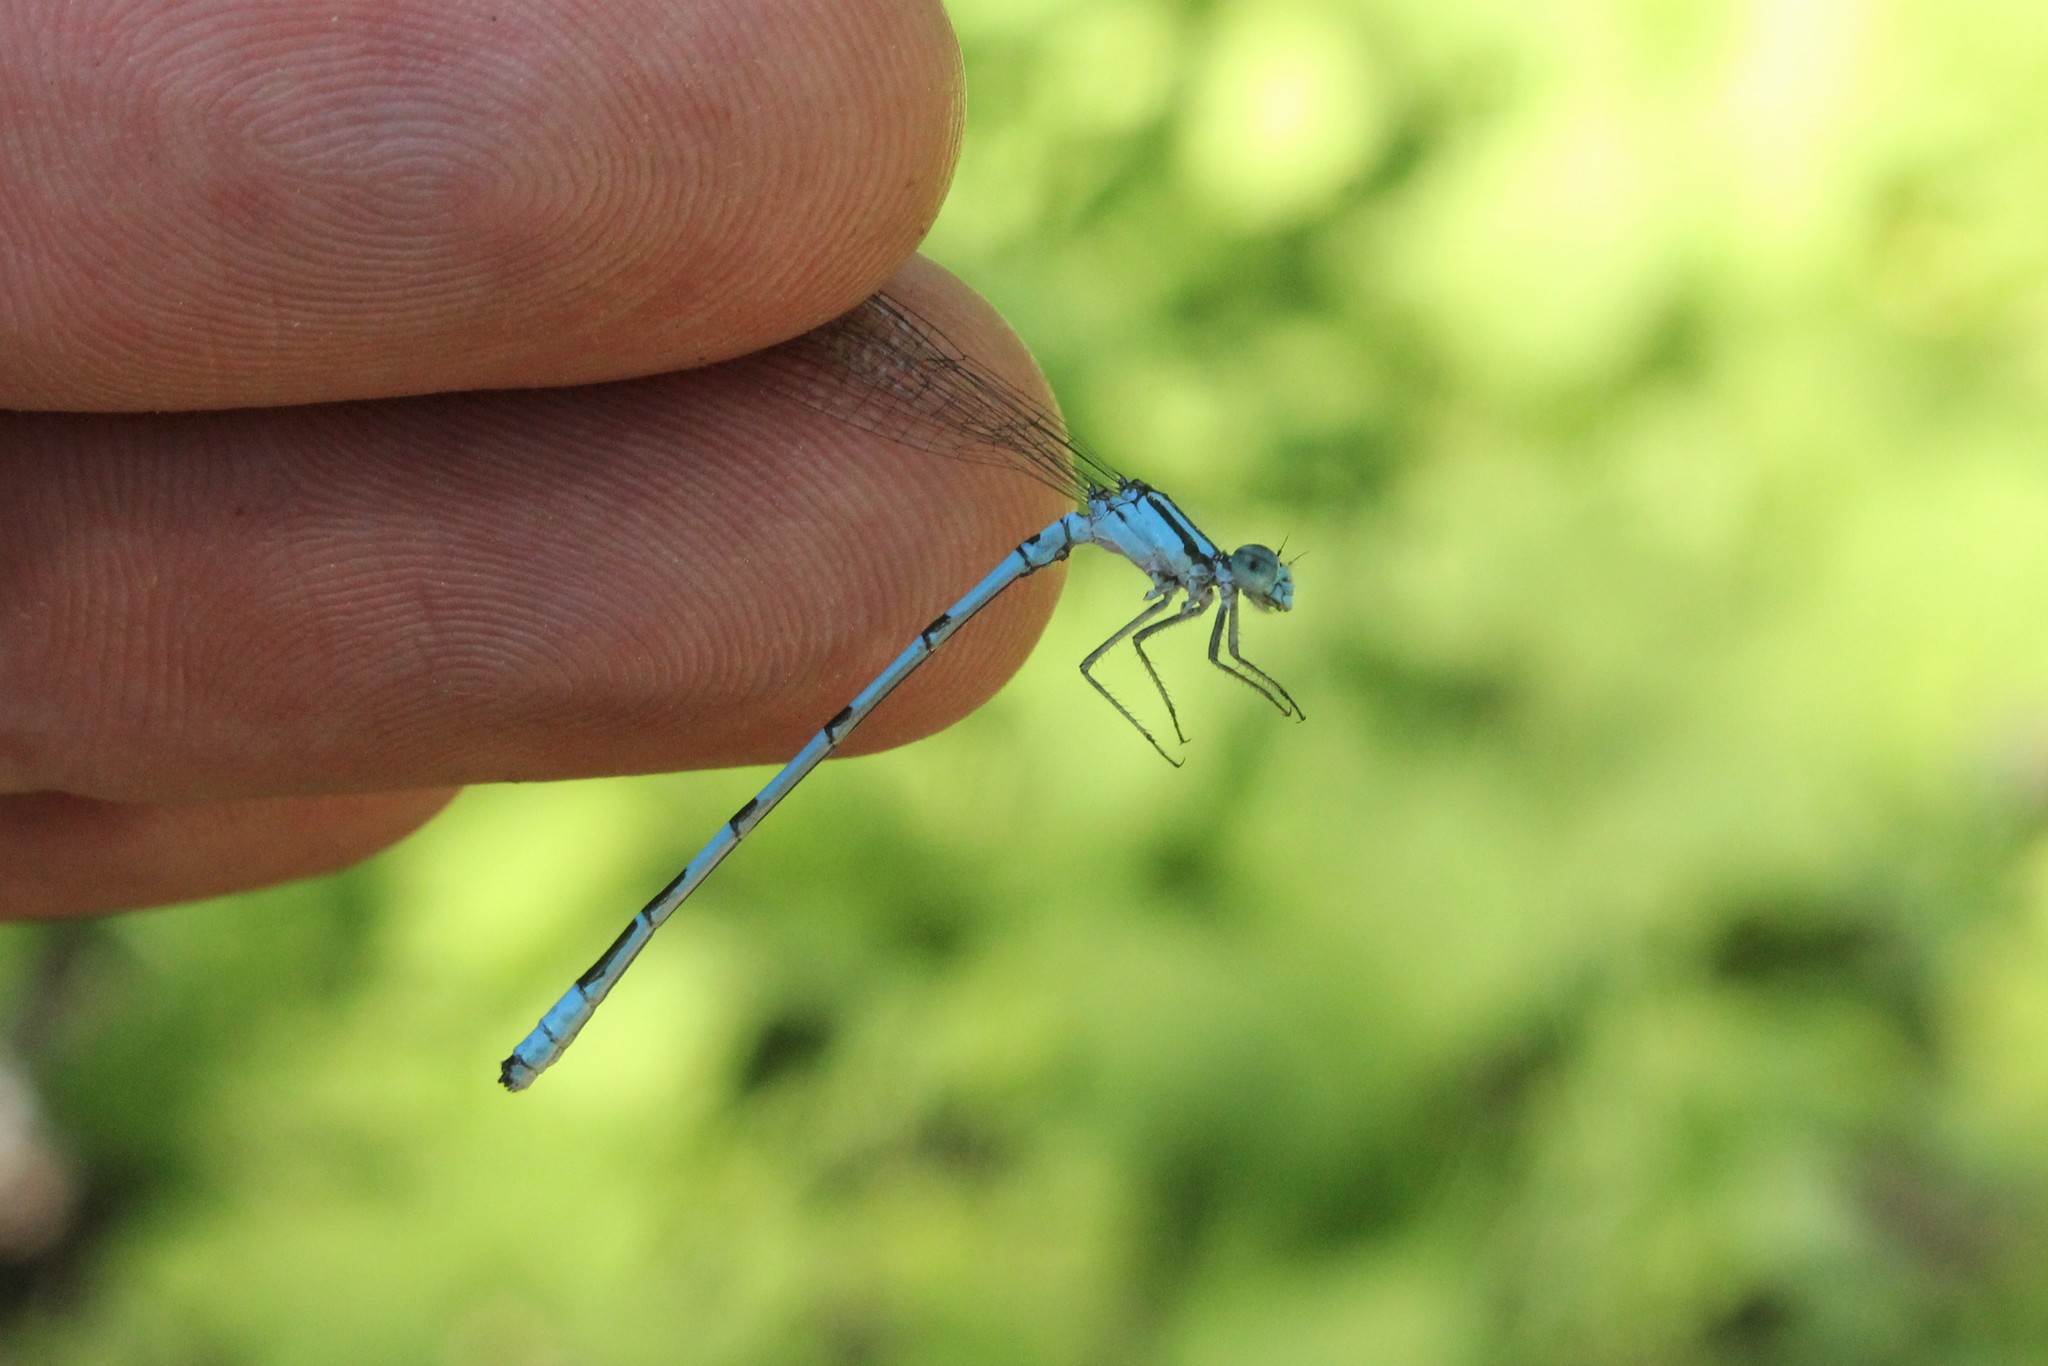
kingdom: Animalia
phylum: Arthropoda
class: Insecta
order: Odonata
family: Coenagrionidae
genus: Enallagma
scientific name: Enallagma ebrium
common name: Marsh bluet
